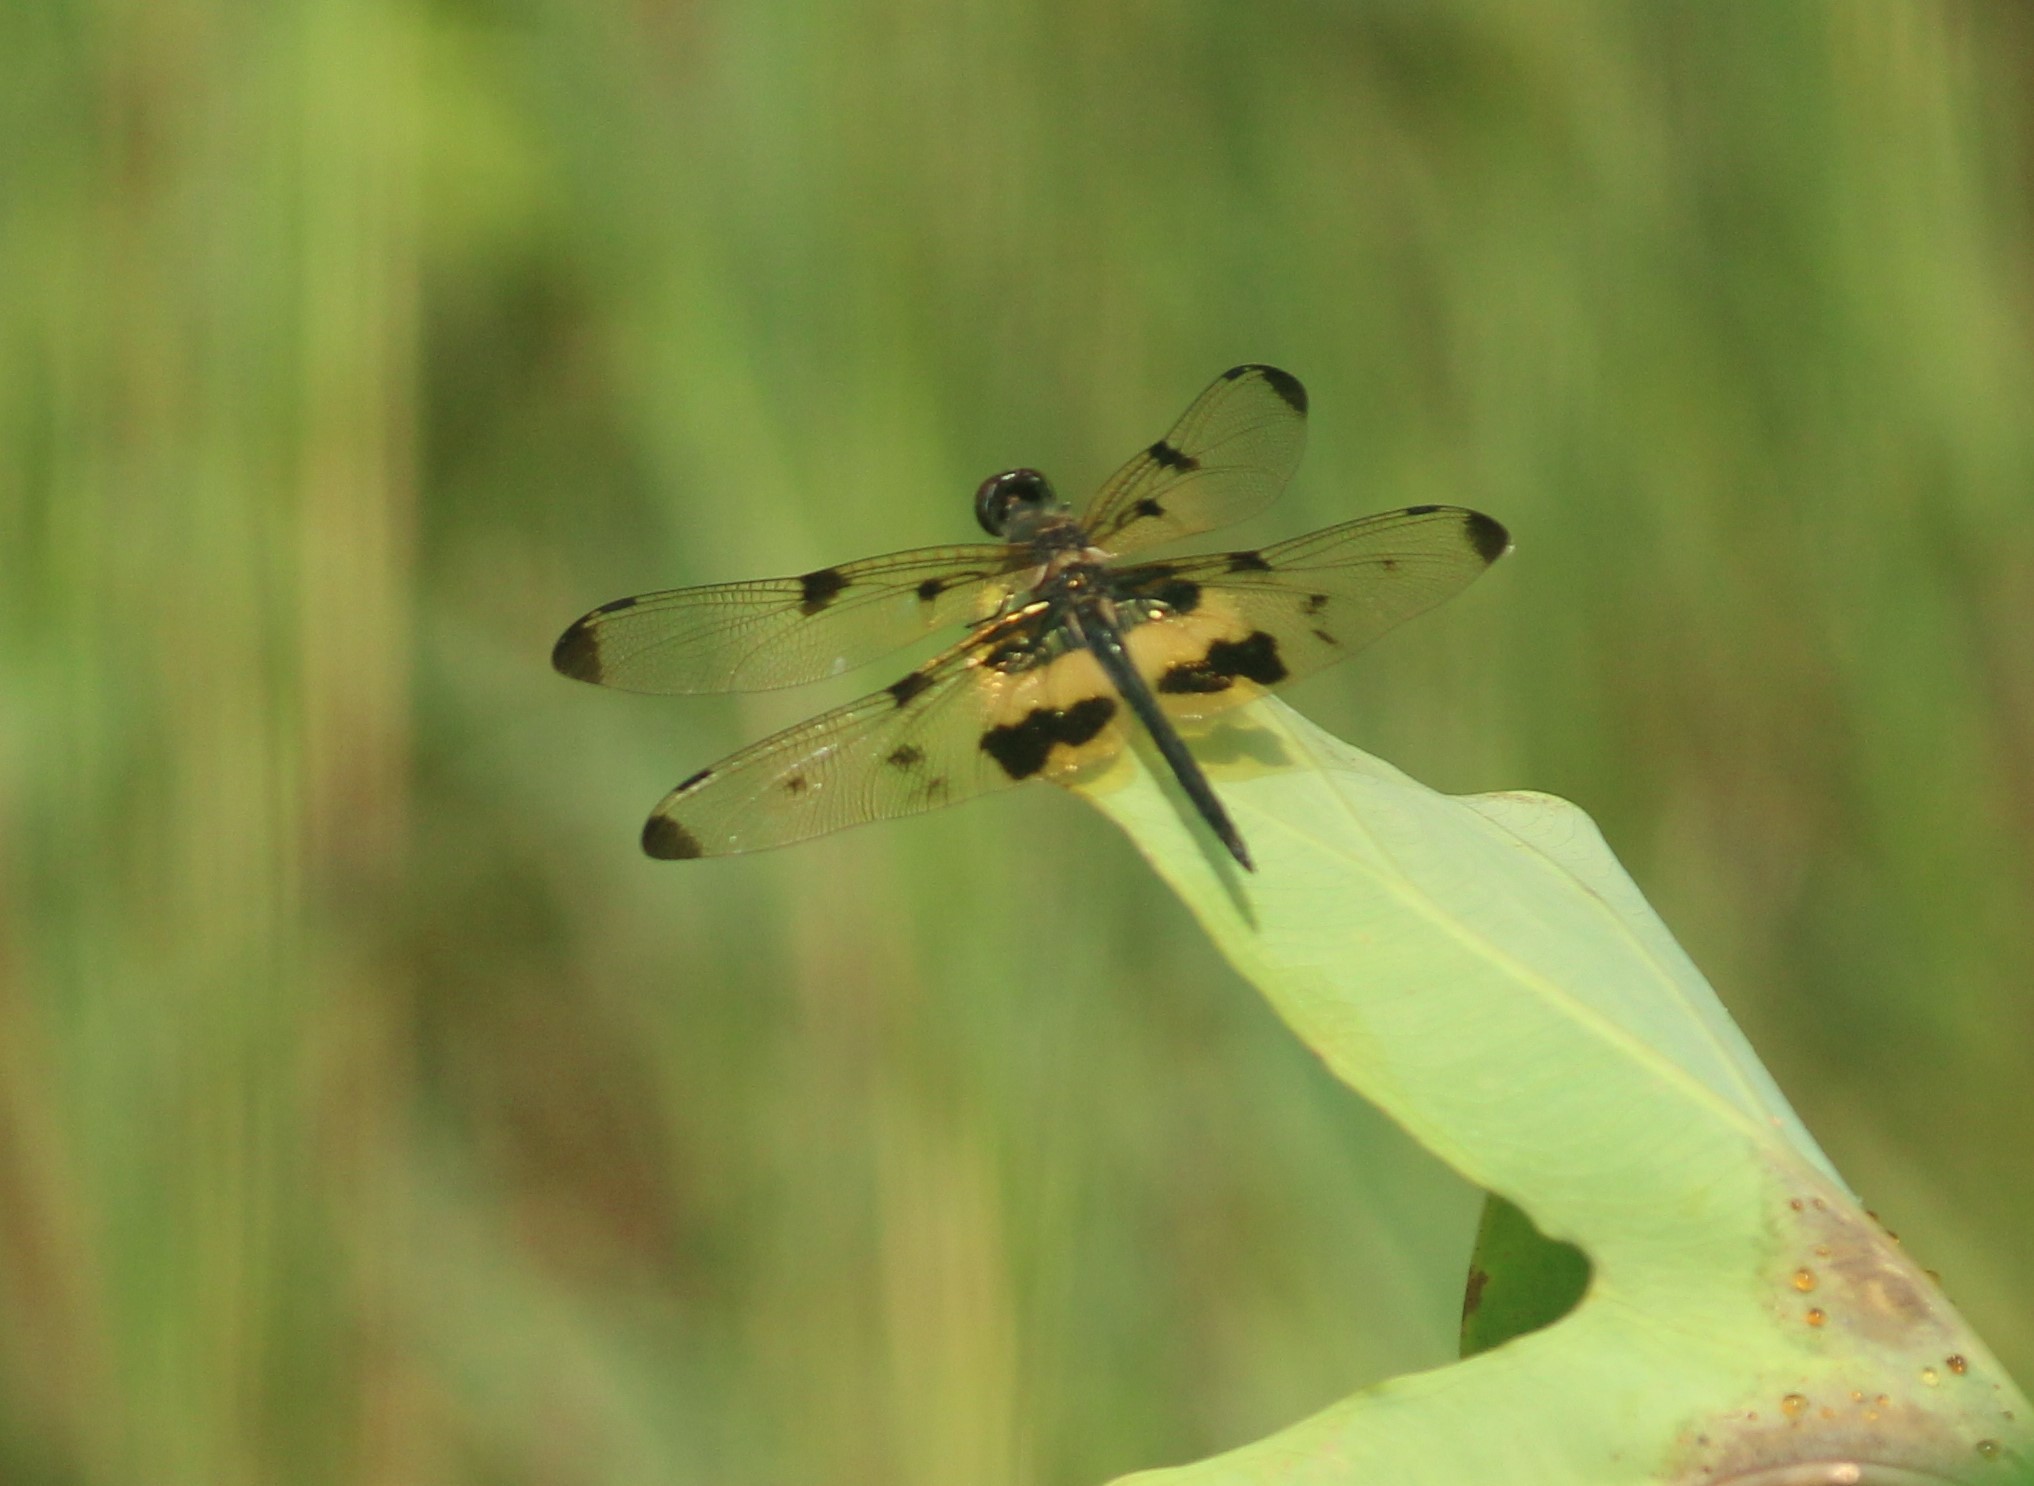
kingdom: Animalia
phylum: Arthropoda
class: Insecta
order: Odonata
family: Libellulidae
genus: Rhyothemis
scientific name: Rhyothemis variegata
